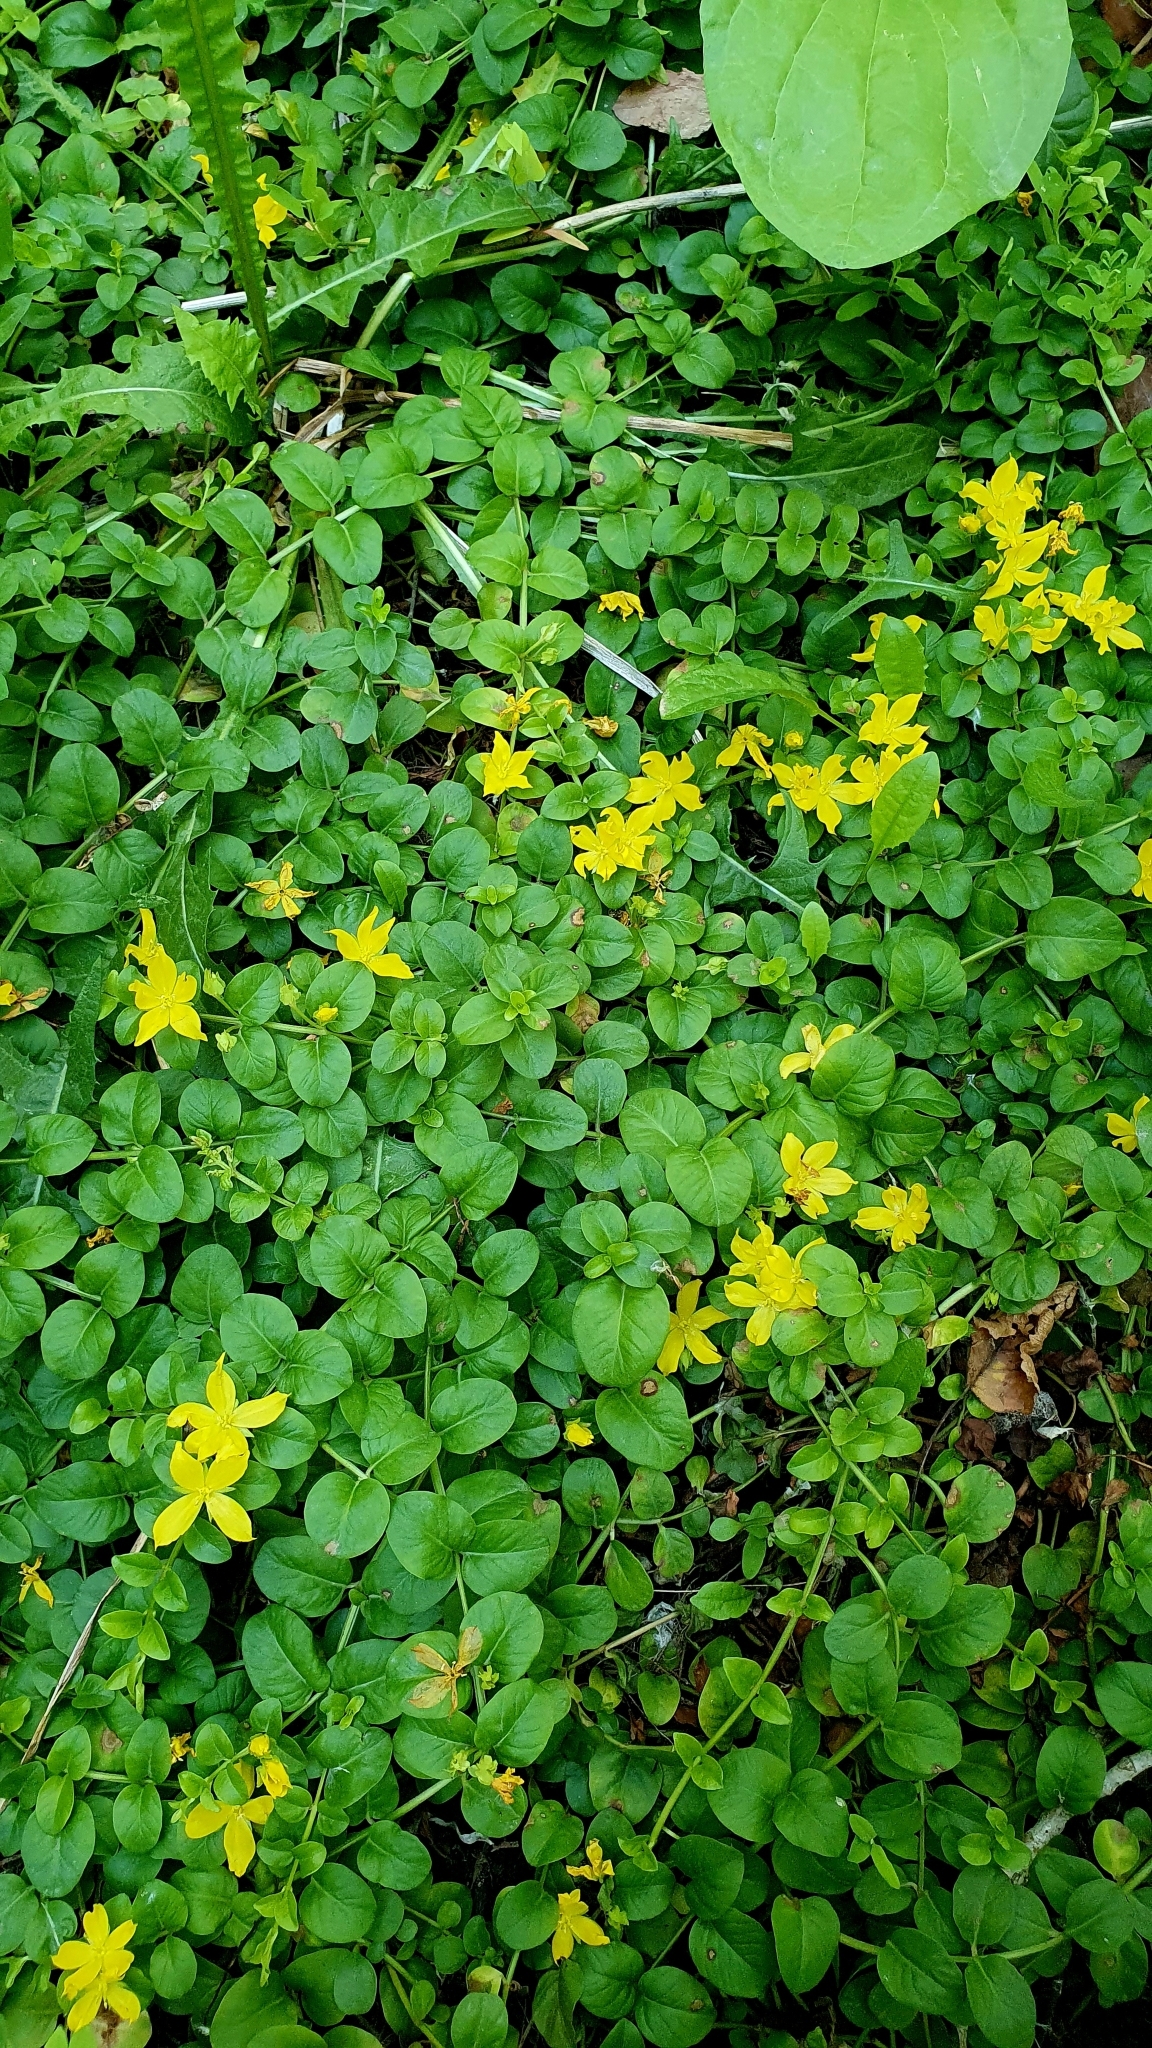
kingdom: Plantae
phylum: Tracheophyta
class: Magnoliopsida
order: Ericales
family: Primulaceae
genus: Lysimachia
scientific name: Lysimachia nummularia
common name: Moneywort
